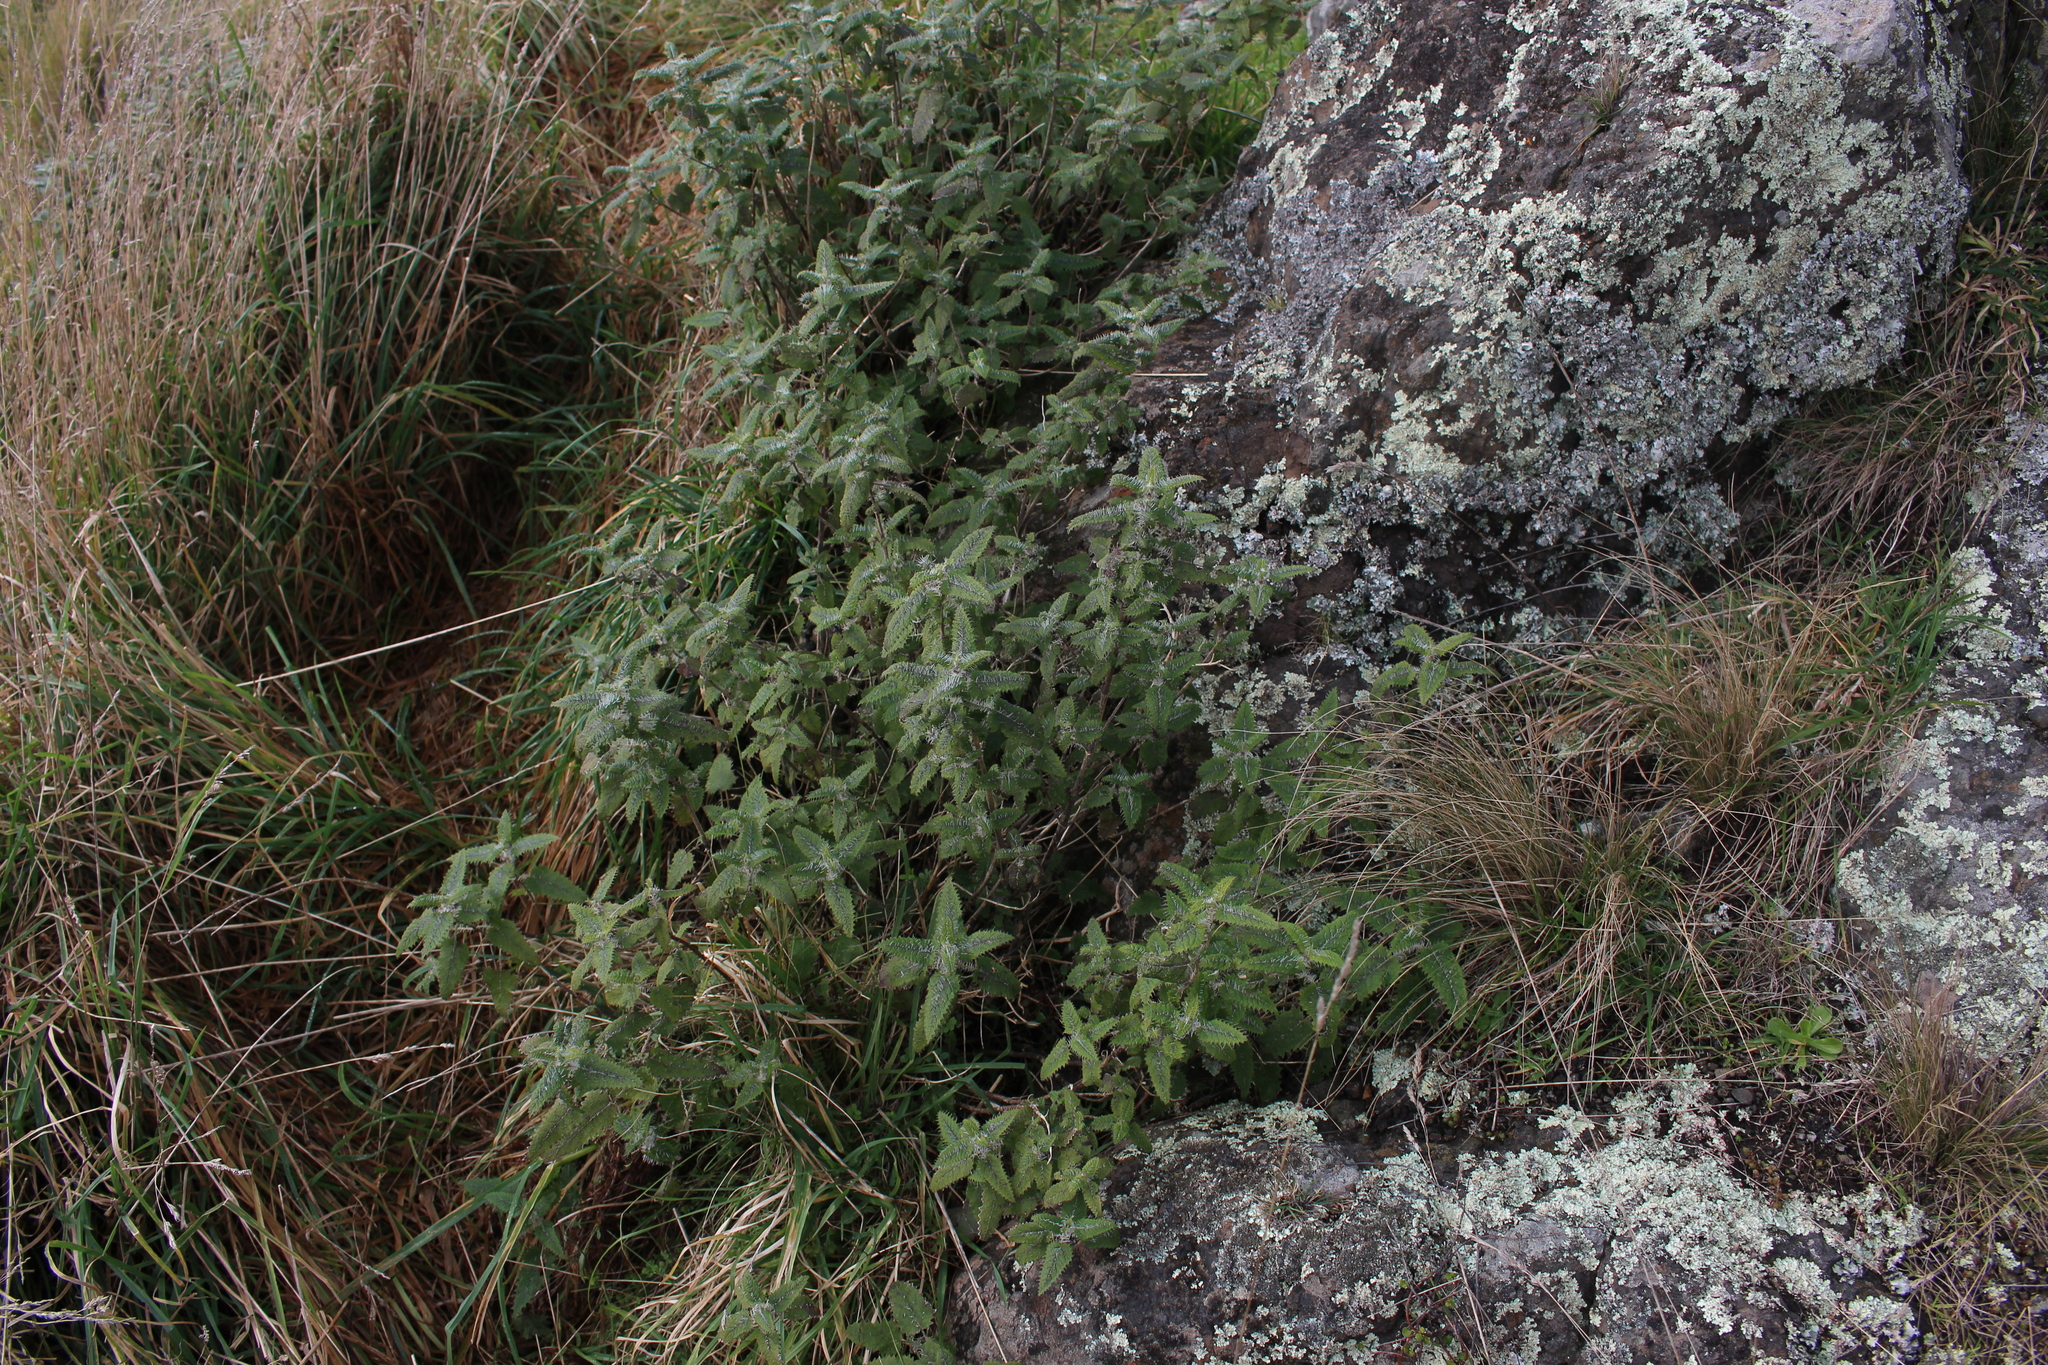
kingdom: Plantae
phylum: Tracheophyta
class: Magnoliopsida
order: Rosales
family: Urticaceae
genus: Urtica
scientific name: Urtica ferox
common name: Tree nettle
